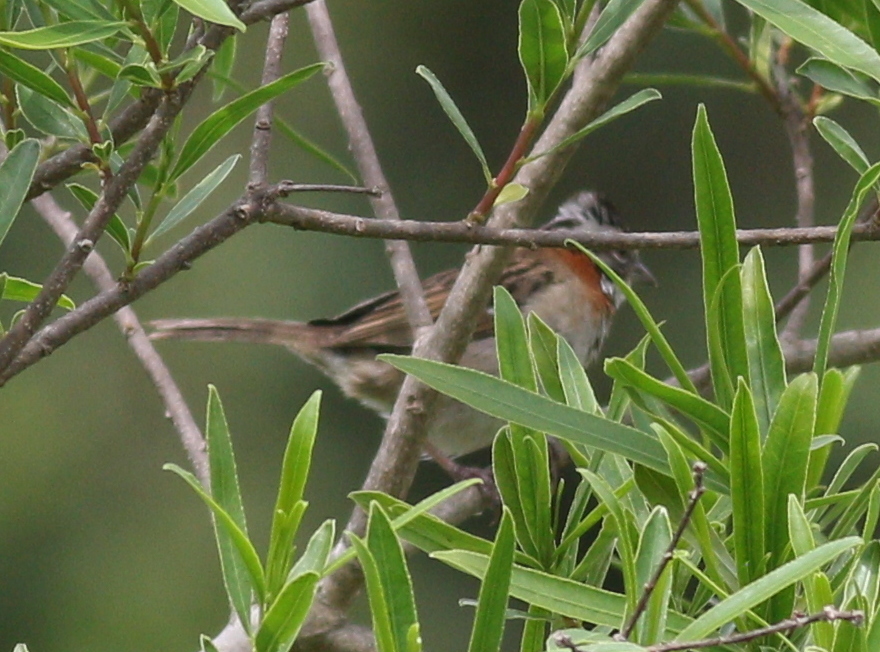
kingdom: Animalia
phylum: Chordata
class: Aves
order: Passeriformes
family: Passerellidae
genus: Zonotrichia
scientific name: Zonotrichia capensis
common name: Rufous-collared sparrow
